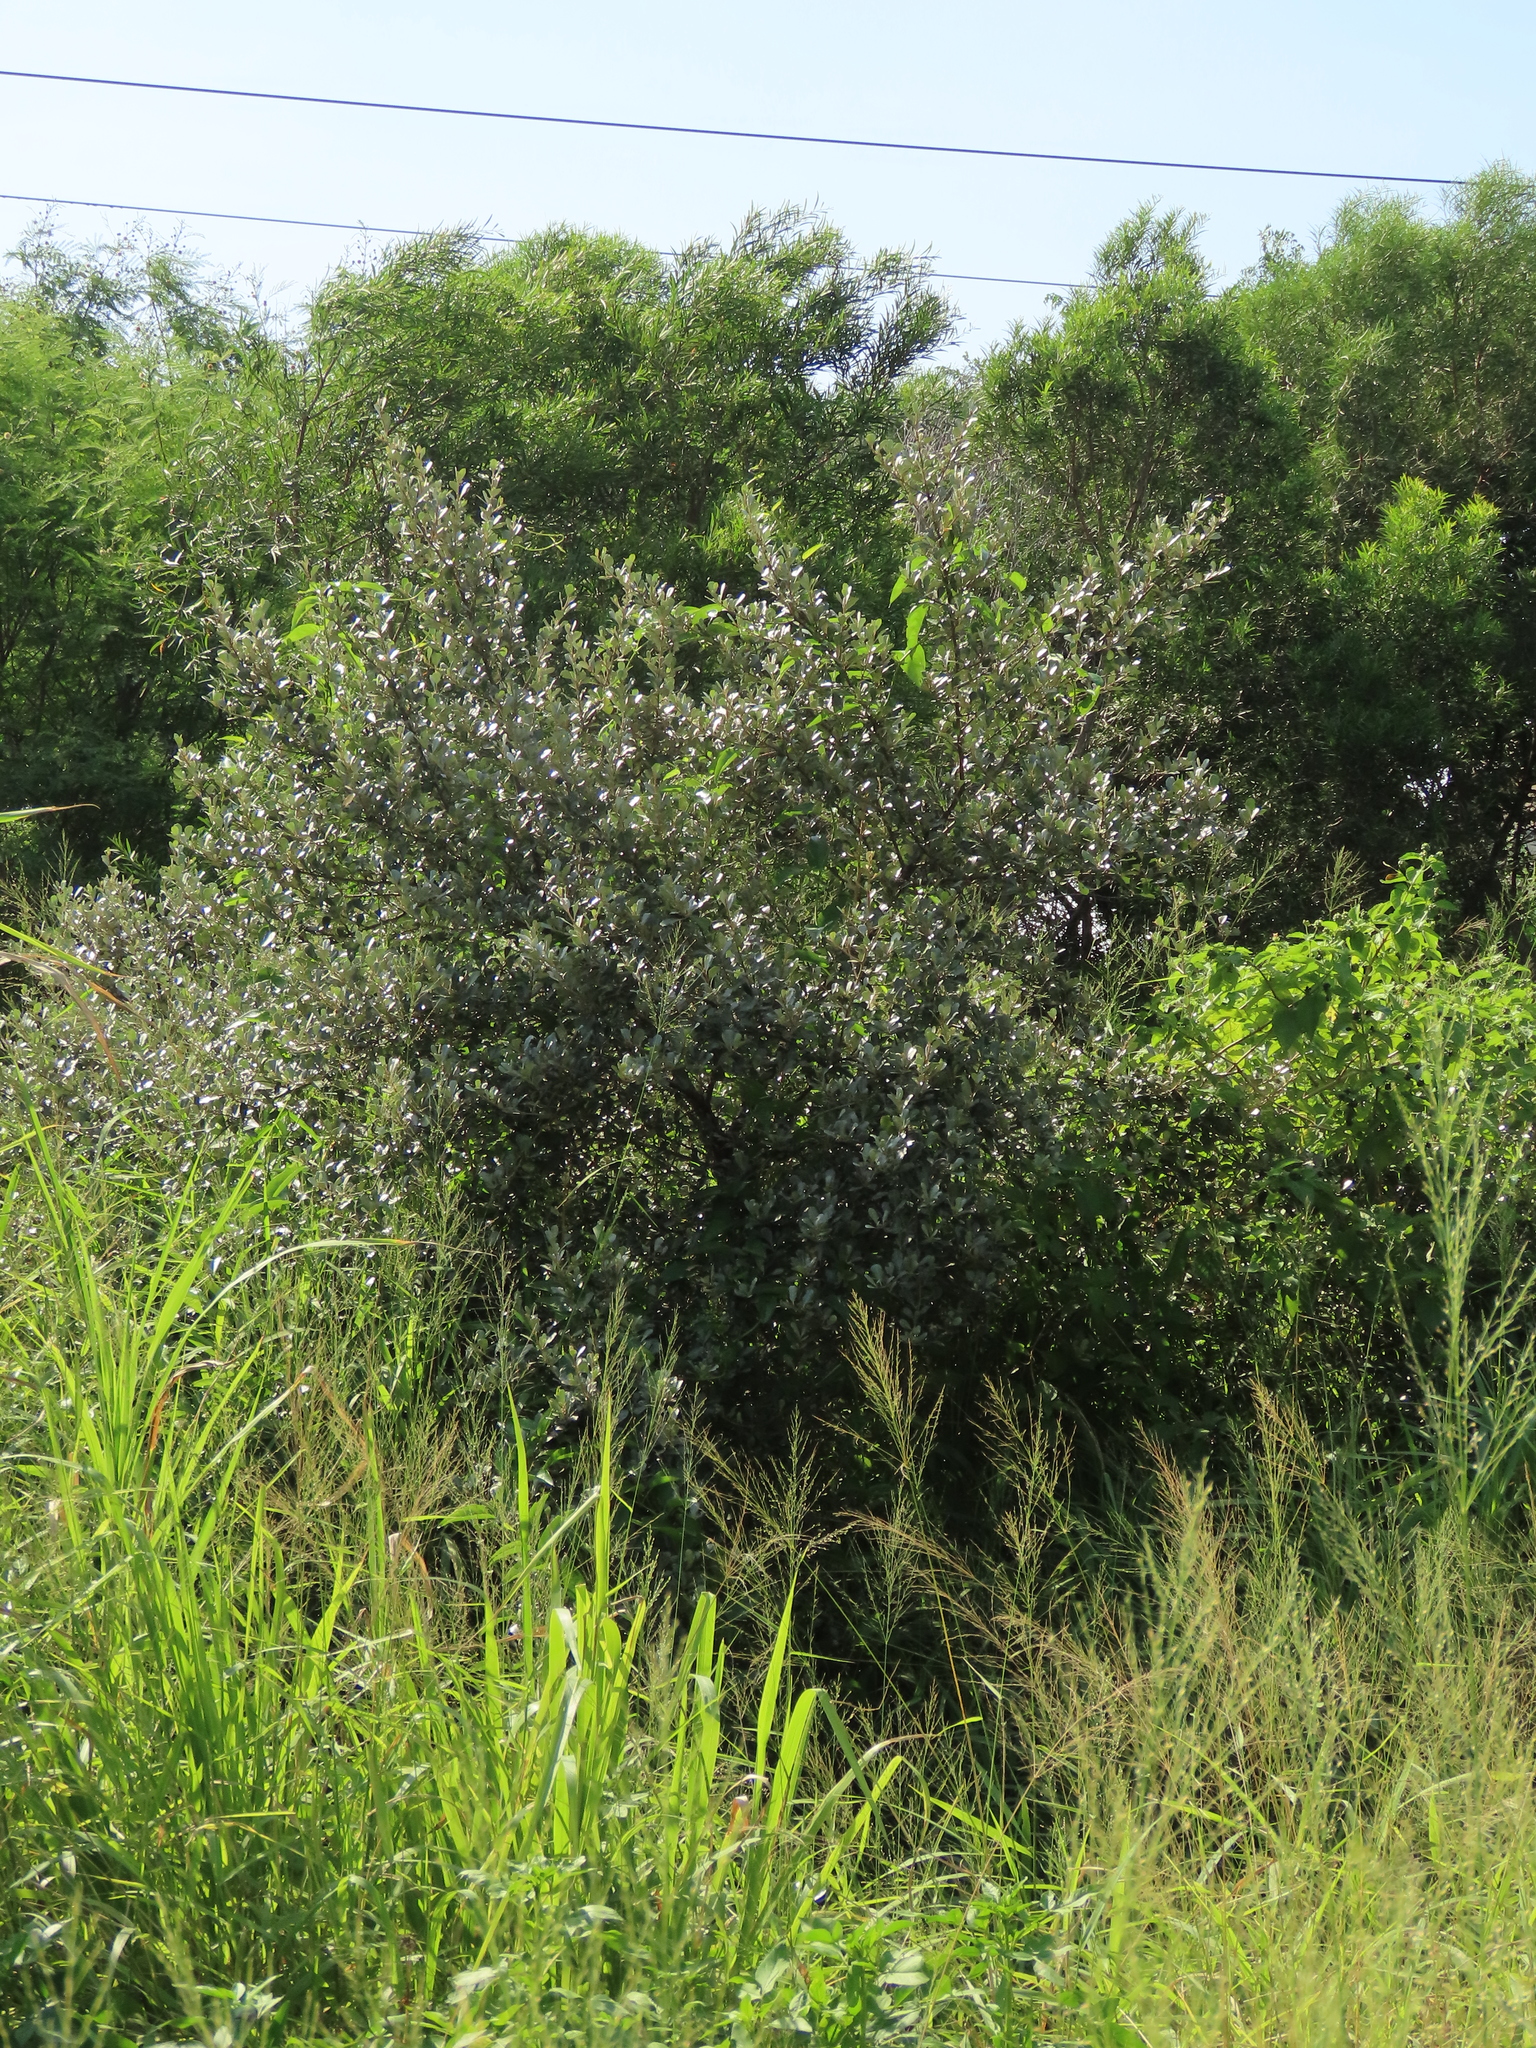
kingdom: Plantae
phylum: Tracheophyta
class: Magnoliopsida
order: Rosales
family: Elaeagnaceae
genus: Elaeagnus
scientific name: Elaeagnus oldhamii
